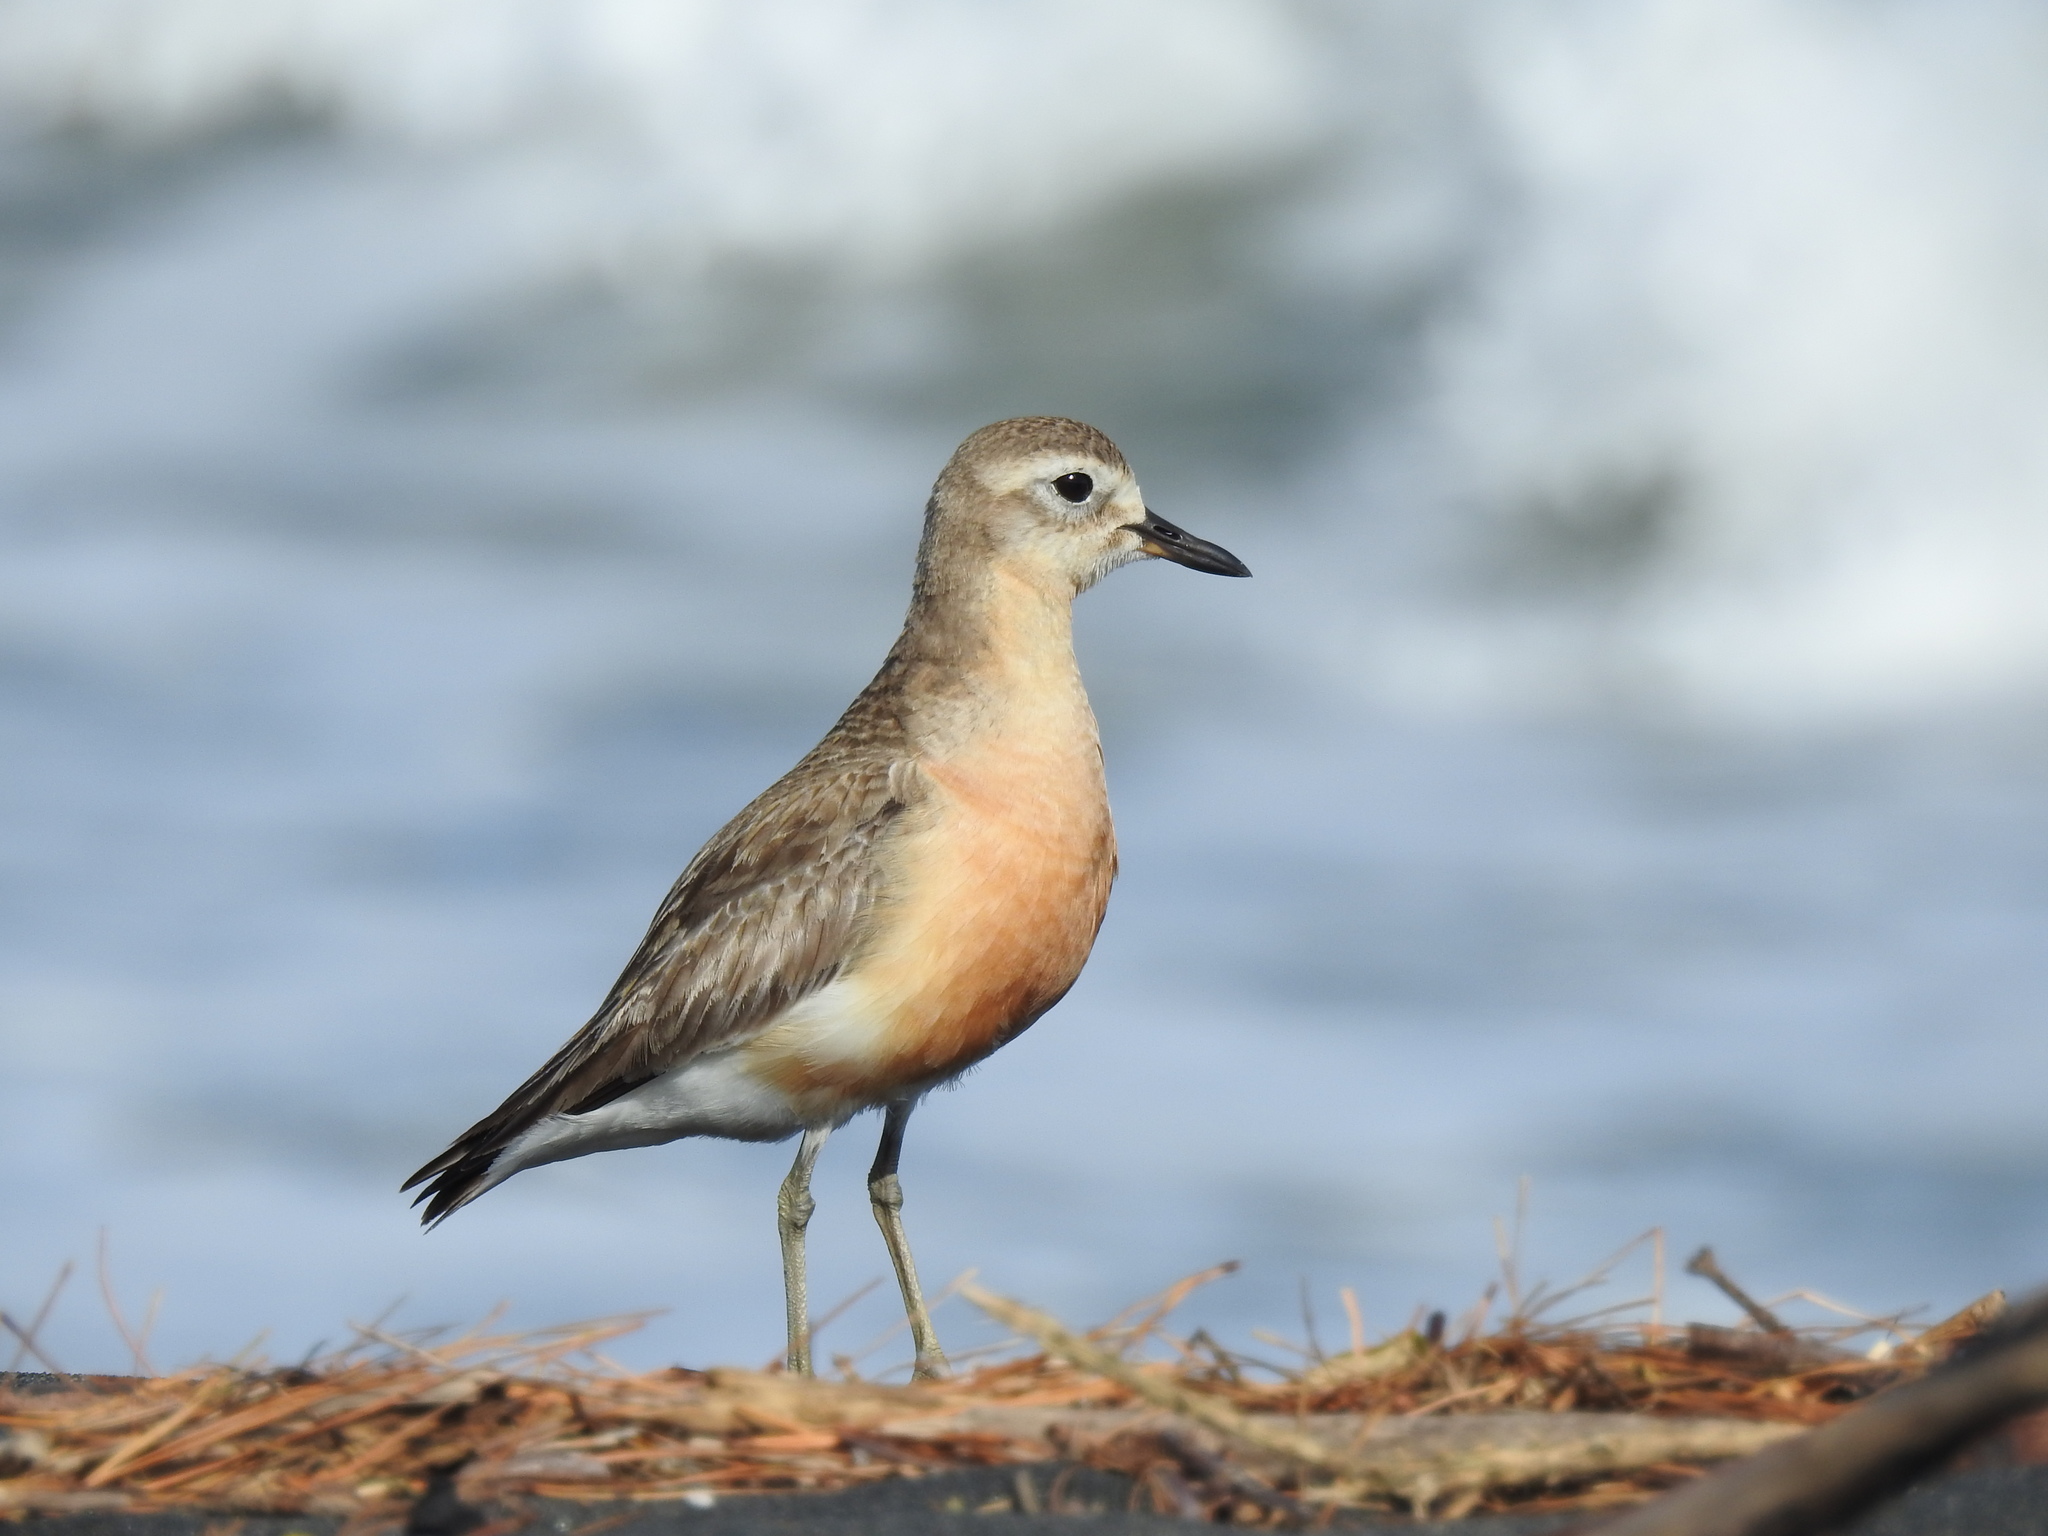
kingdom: Animalia
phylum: Chordata
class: Aves
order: Charadriiformes
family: Charadriidae
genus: Anarhynchus
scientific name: Anarhynchus
